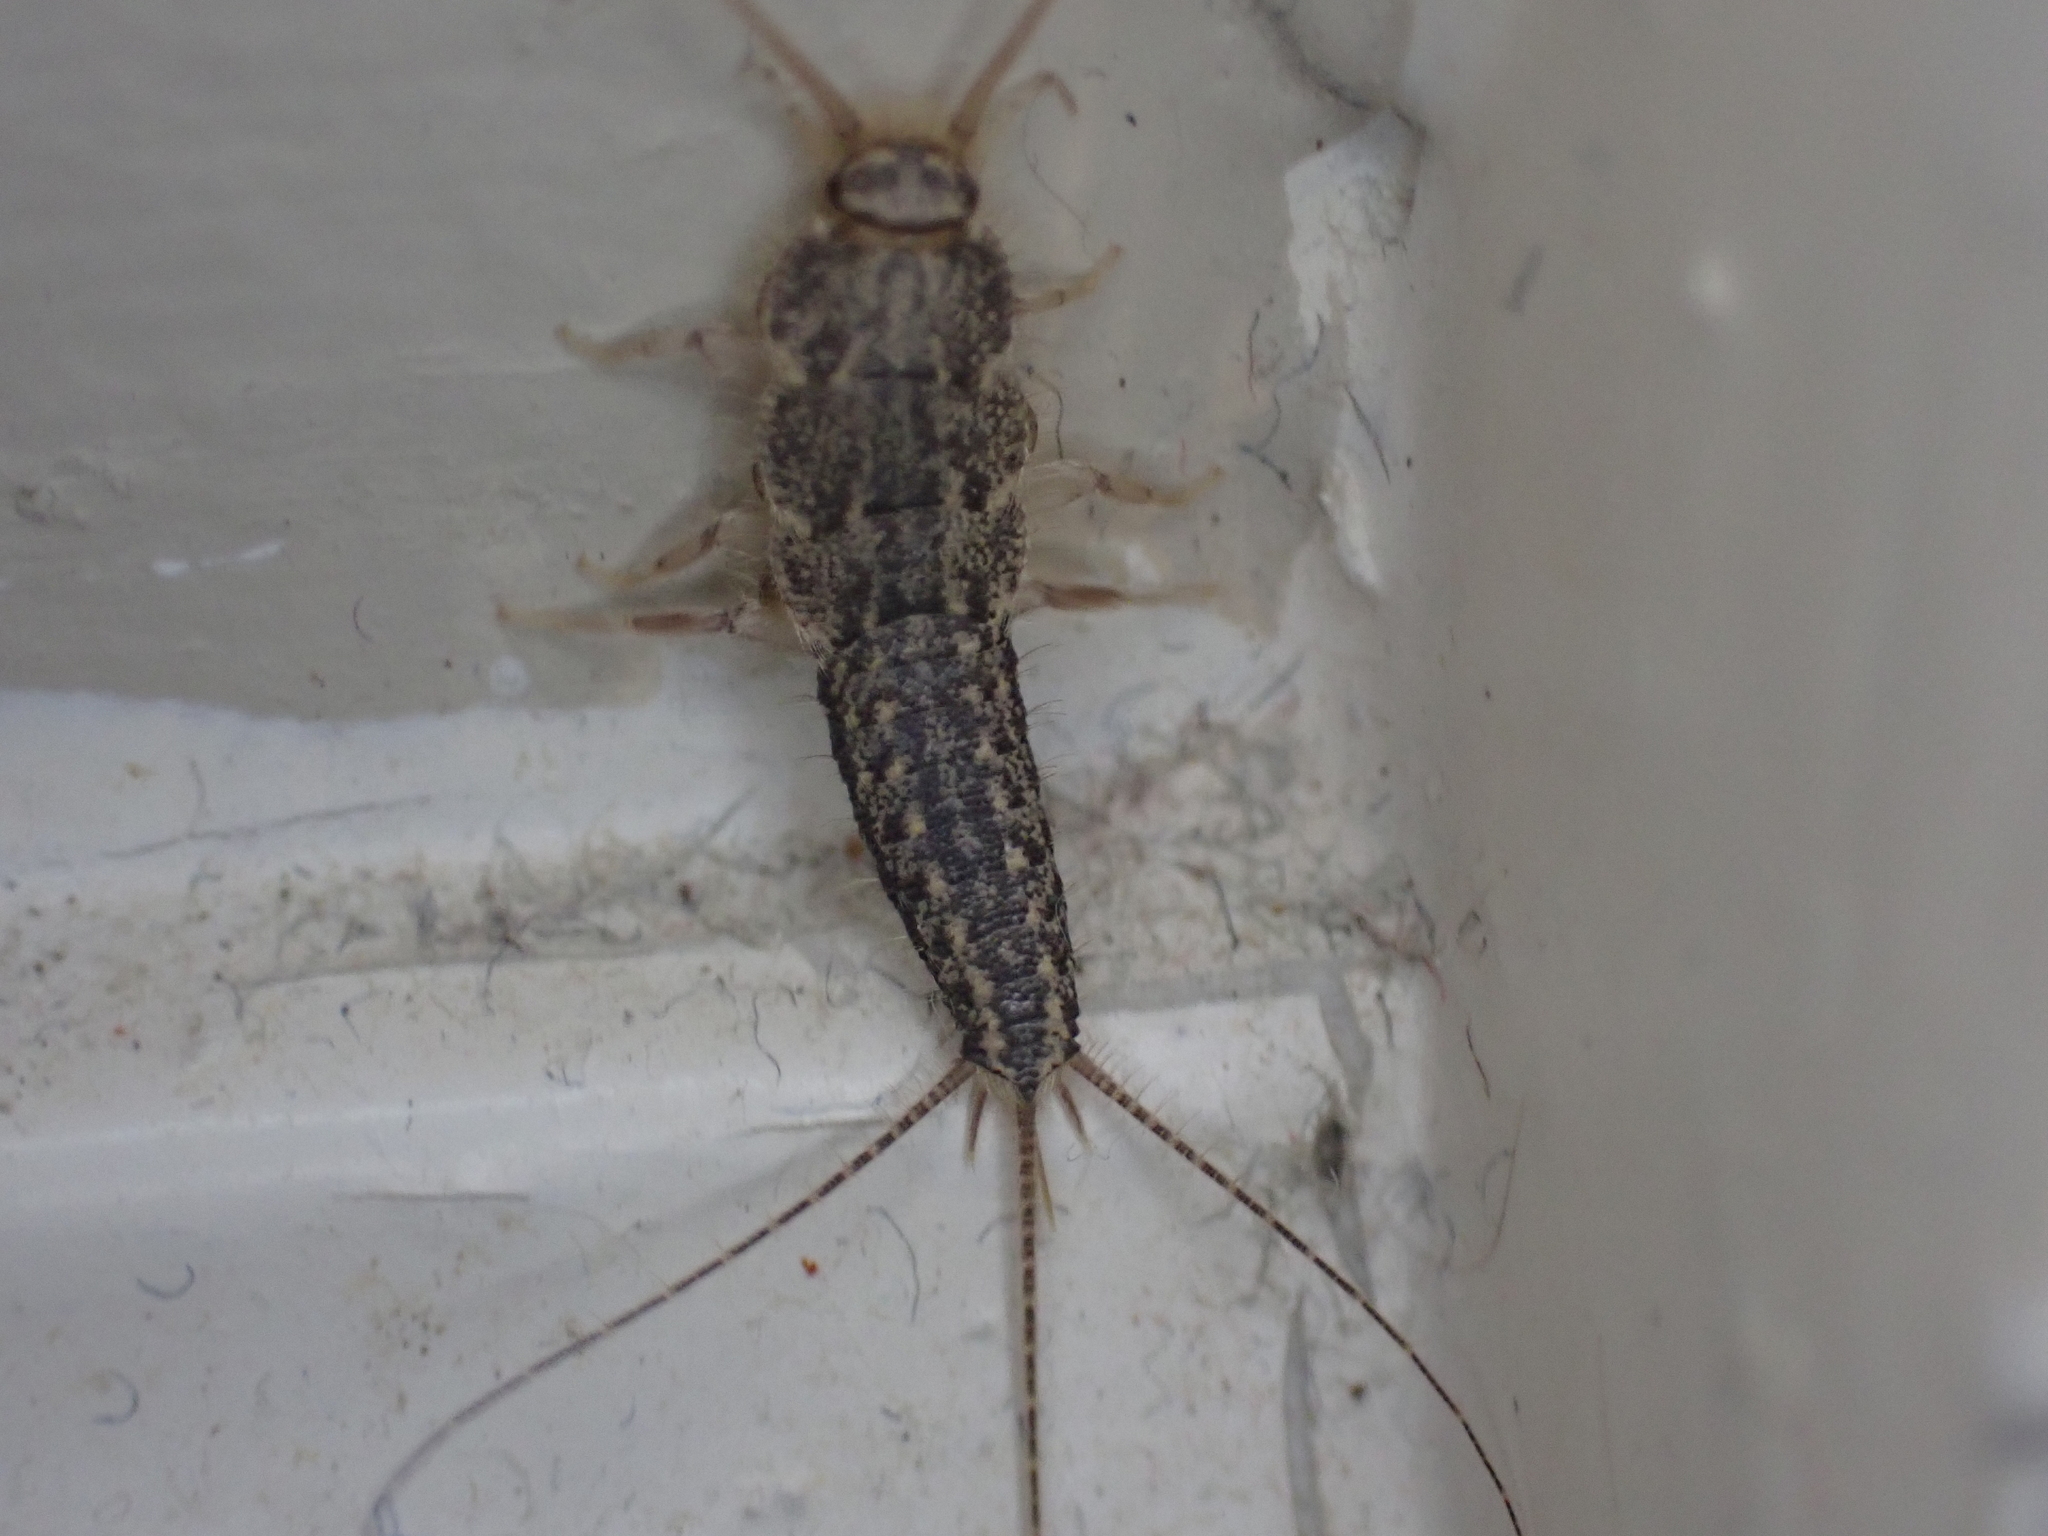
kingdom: Animalia
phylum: Arthropoda
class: Insecta
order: Zygentoma
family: Lepismatidae
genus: Ctenolepisma
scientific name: Ctenolepisma lineata
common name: Four-lined silverfish
